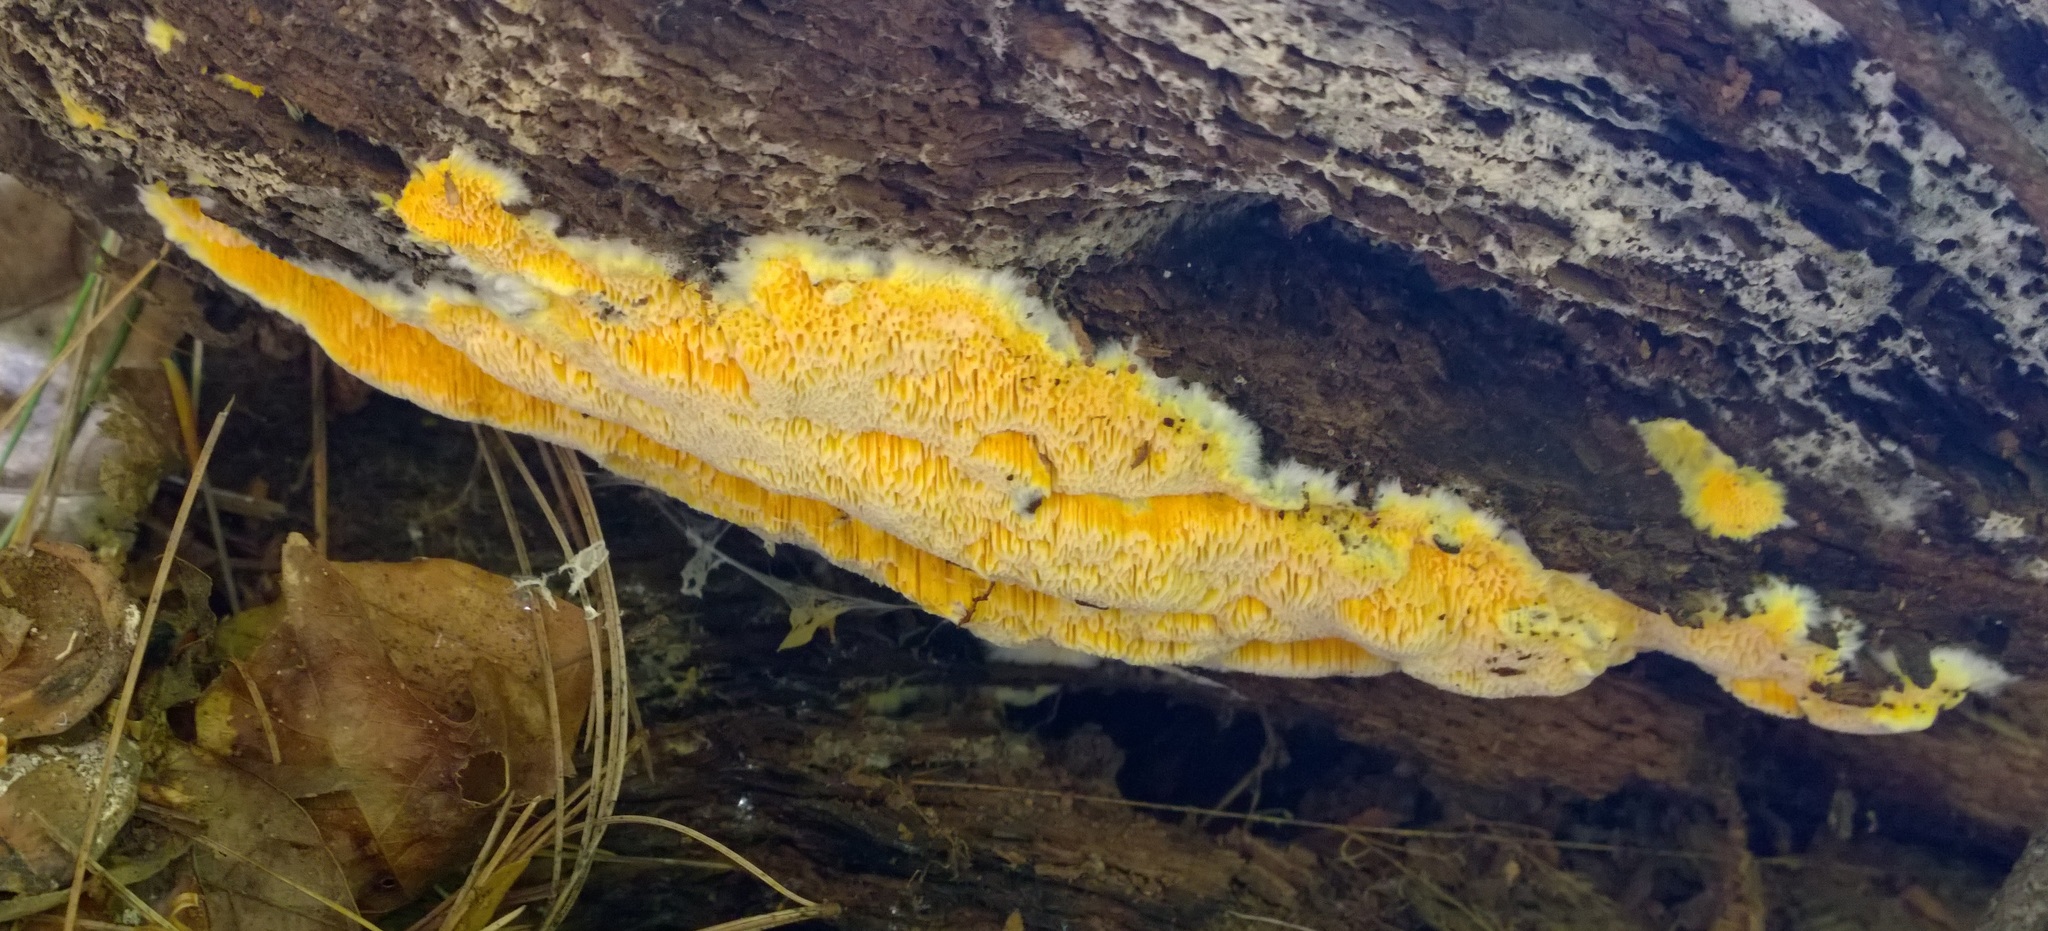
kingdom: Fungi
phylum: Basidiomycota
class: Agaricomycetes
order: Polyporales
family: Fibroporiaceae
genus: Fibroporia
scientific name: Fibroporia radiculosa
